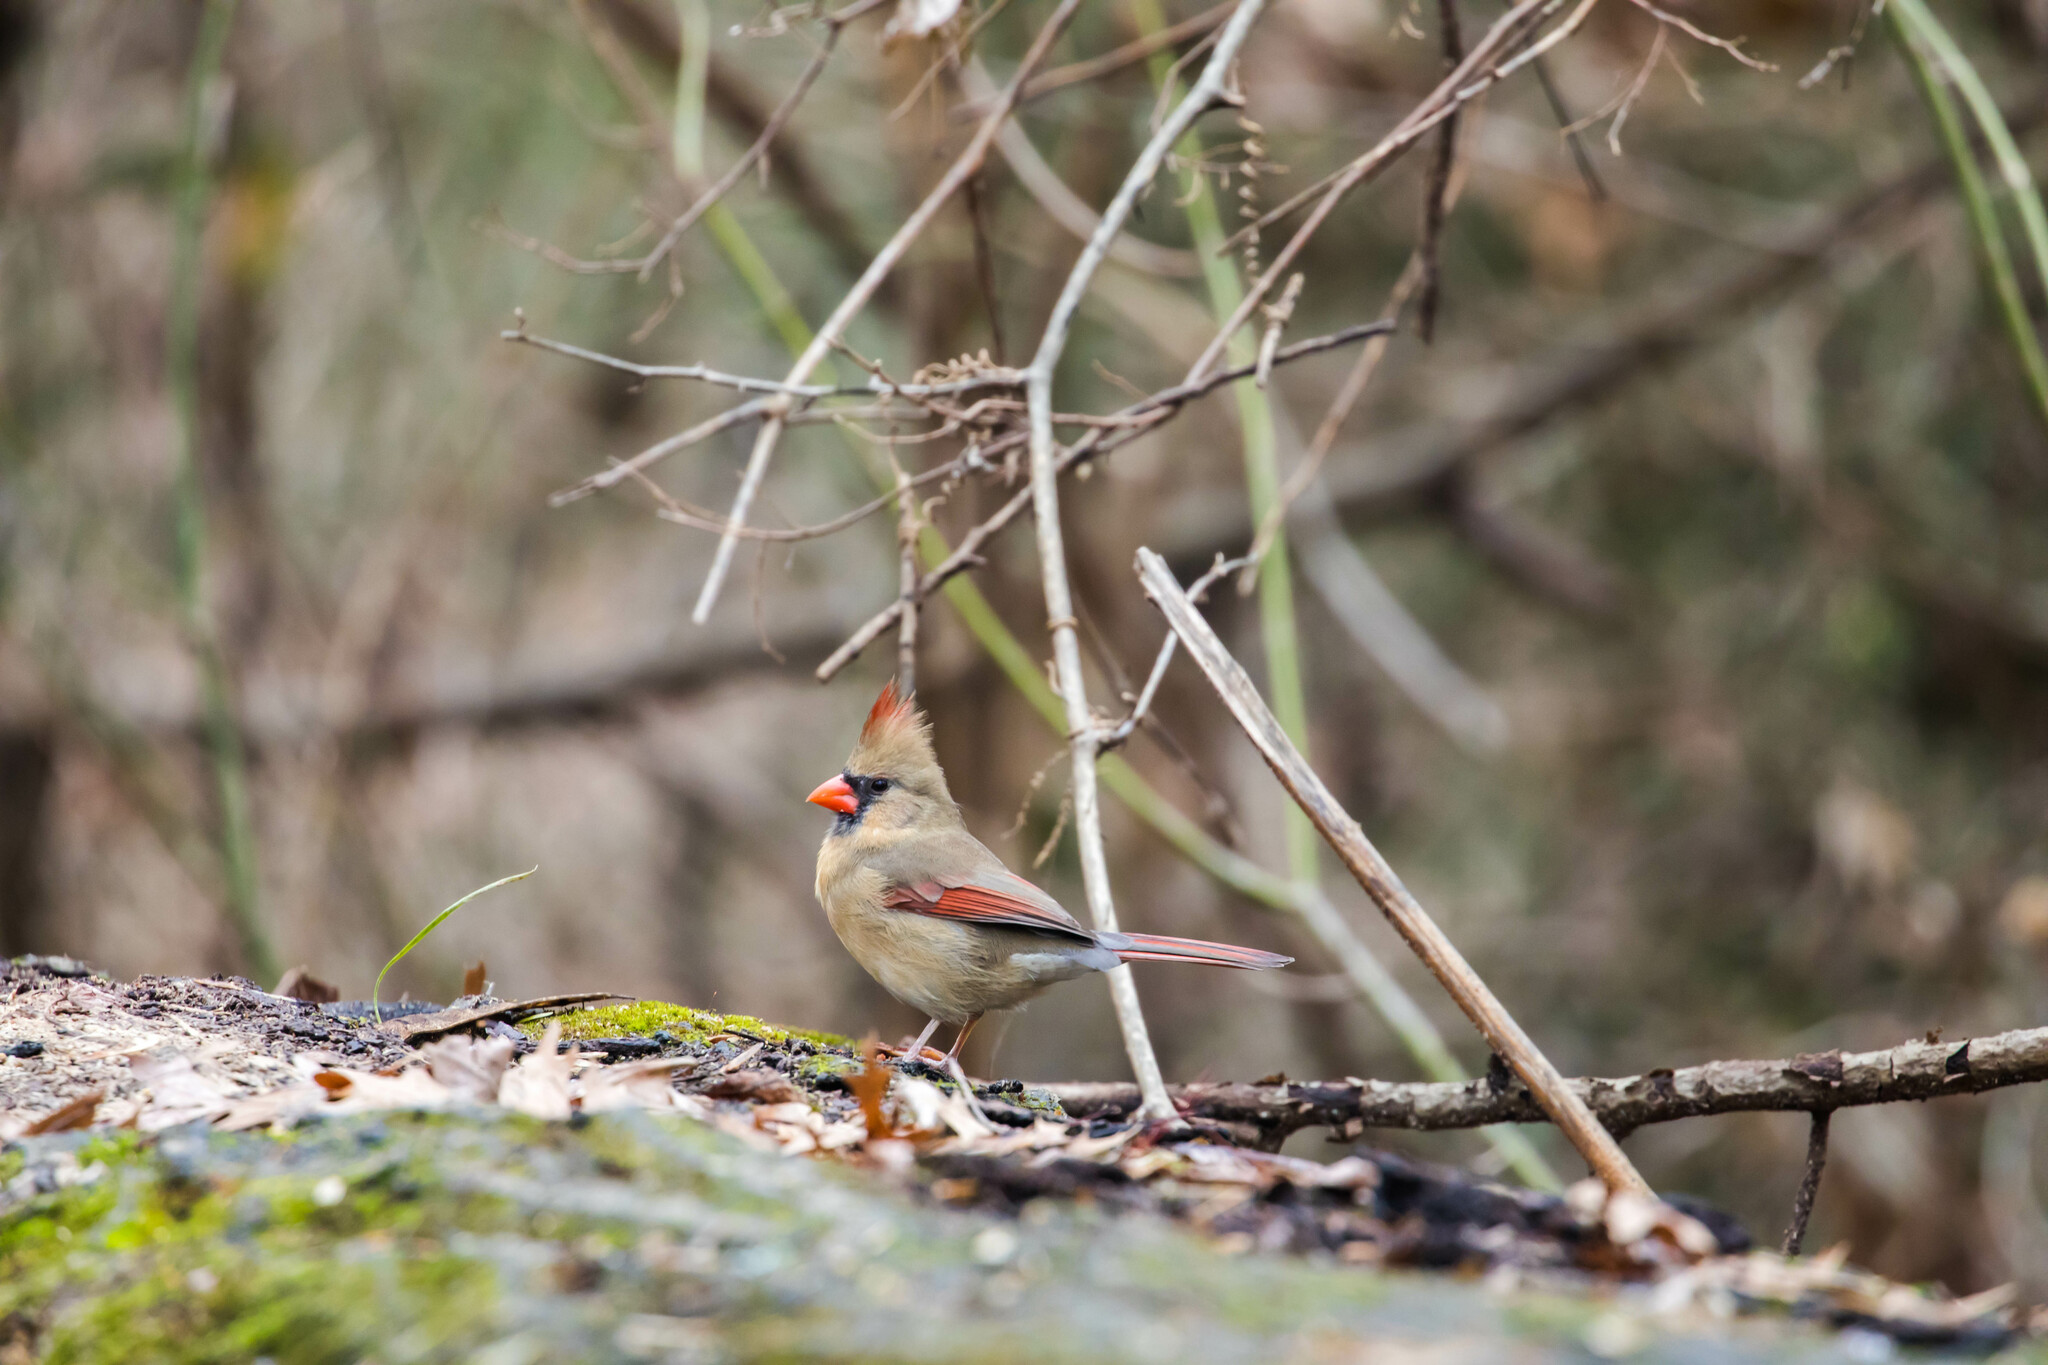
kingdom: Animalia
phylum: Chordata
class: Aves
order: Passeriformes
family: Cardinalidae
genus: Cardinalis
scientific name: Cardinalis cardinalis
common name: Northern cardinal
